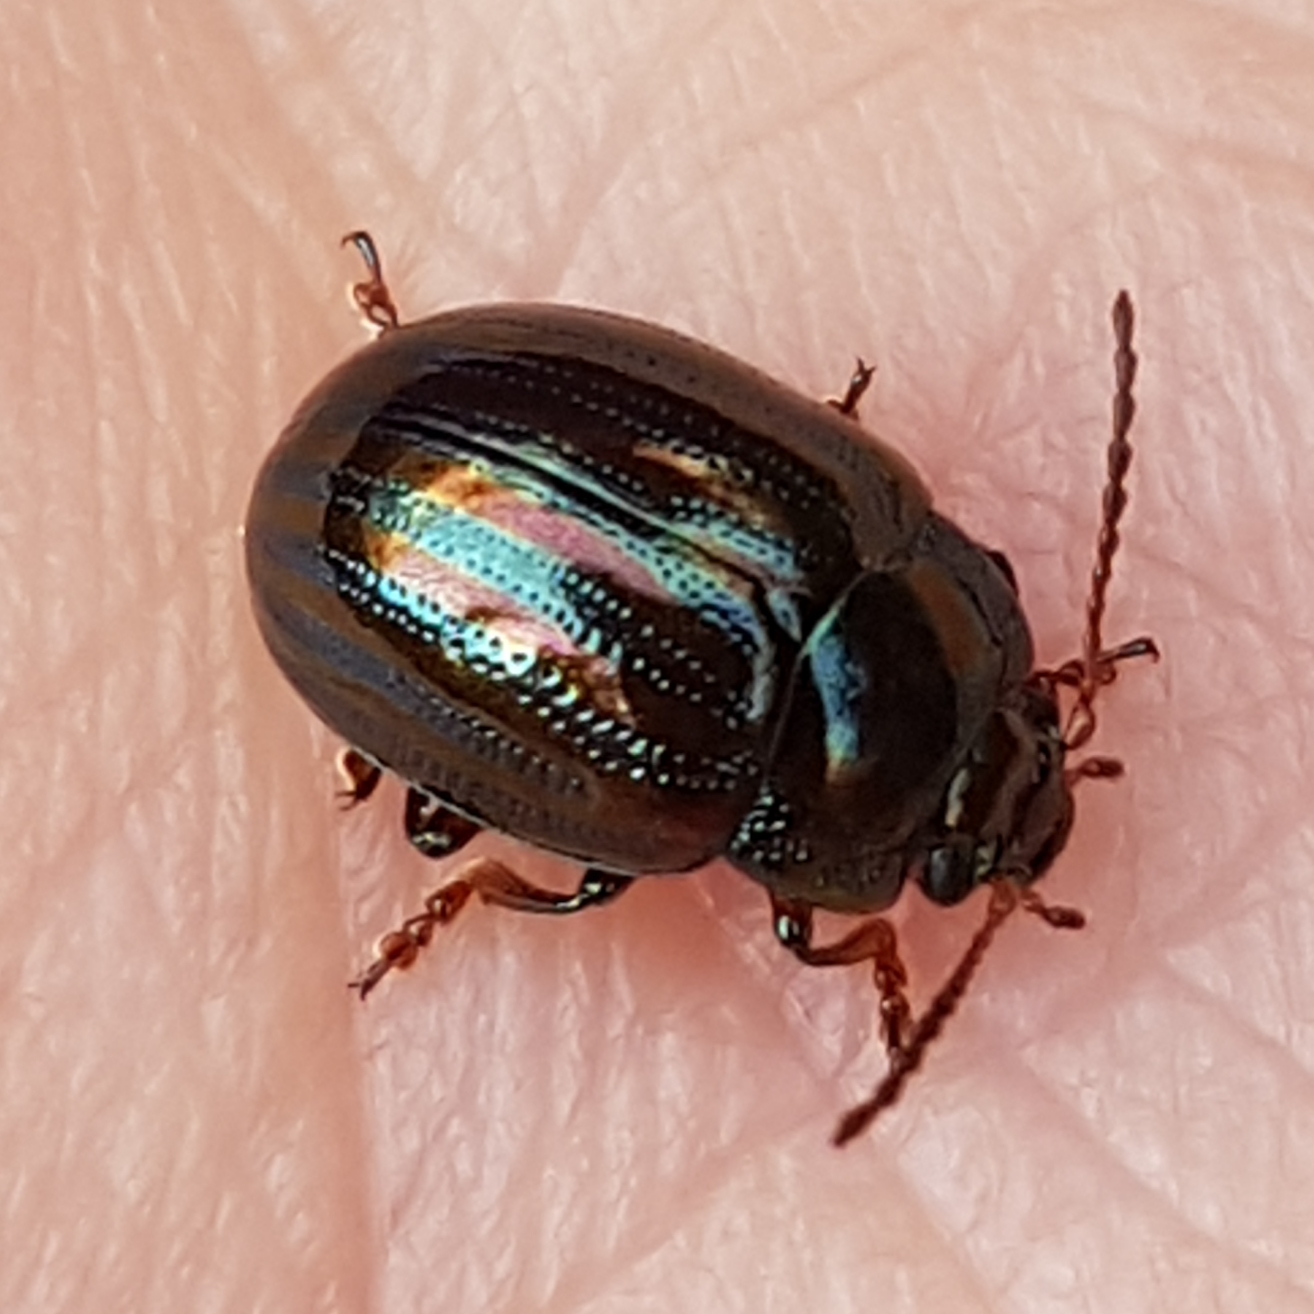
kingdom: Animalia
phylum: Arthropoda
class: Insecta
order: Coleoptera
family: Chrysomelidae
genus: Chrysolina
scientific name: Chrysolina americana
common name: Rosemary beetle
